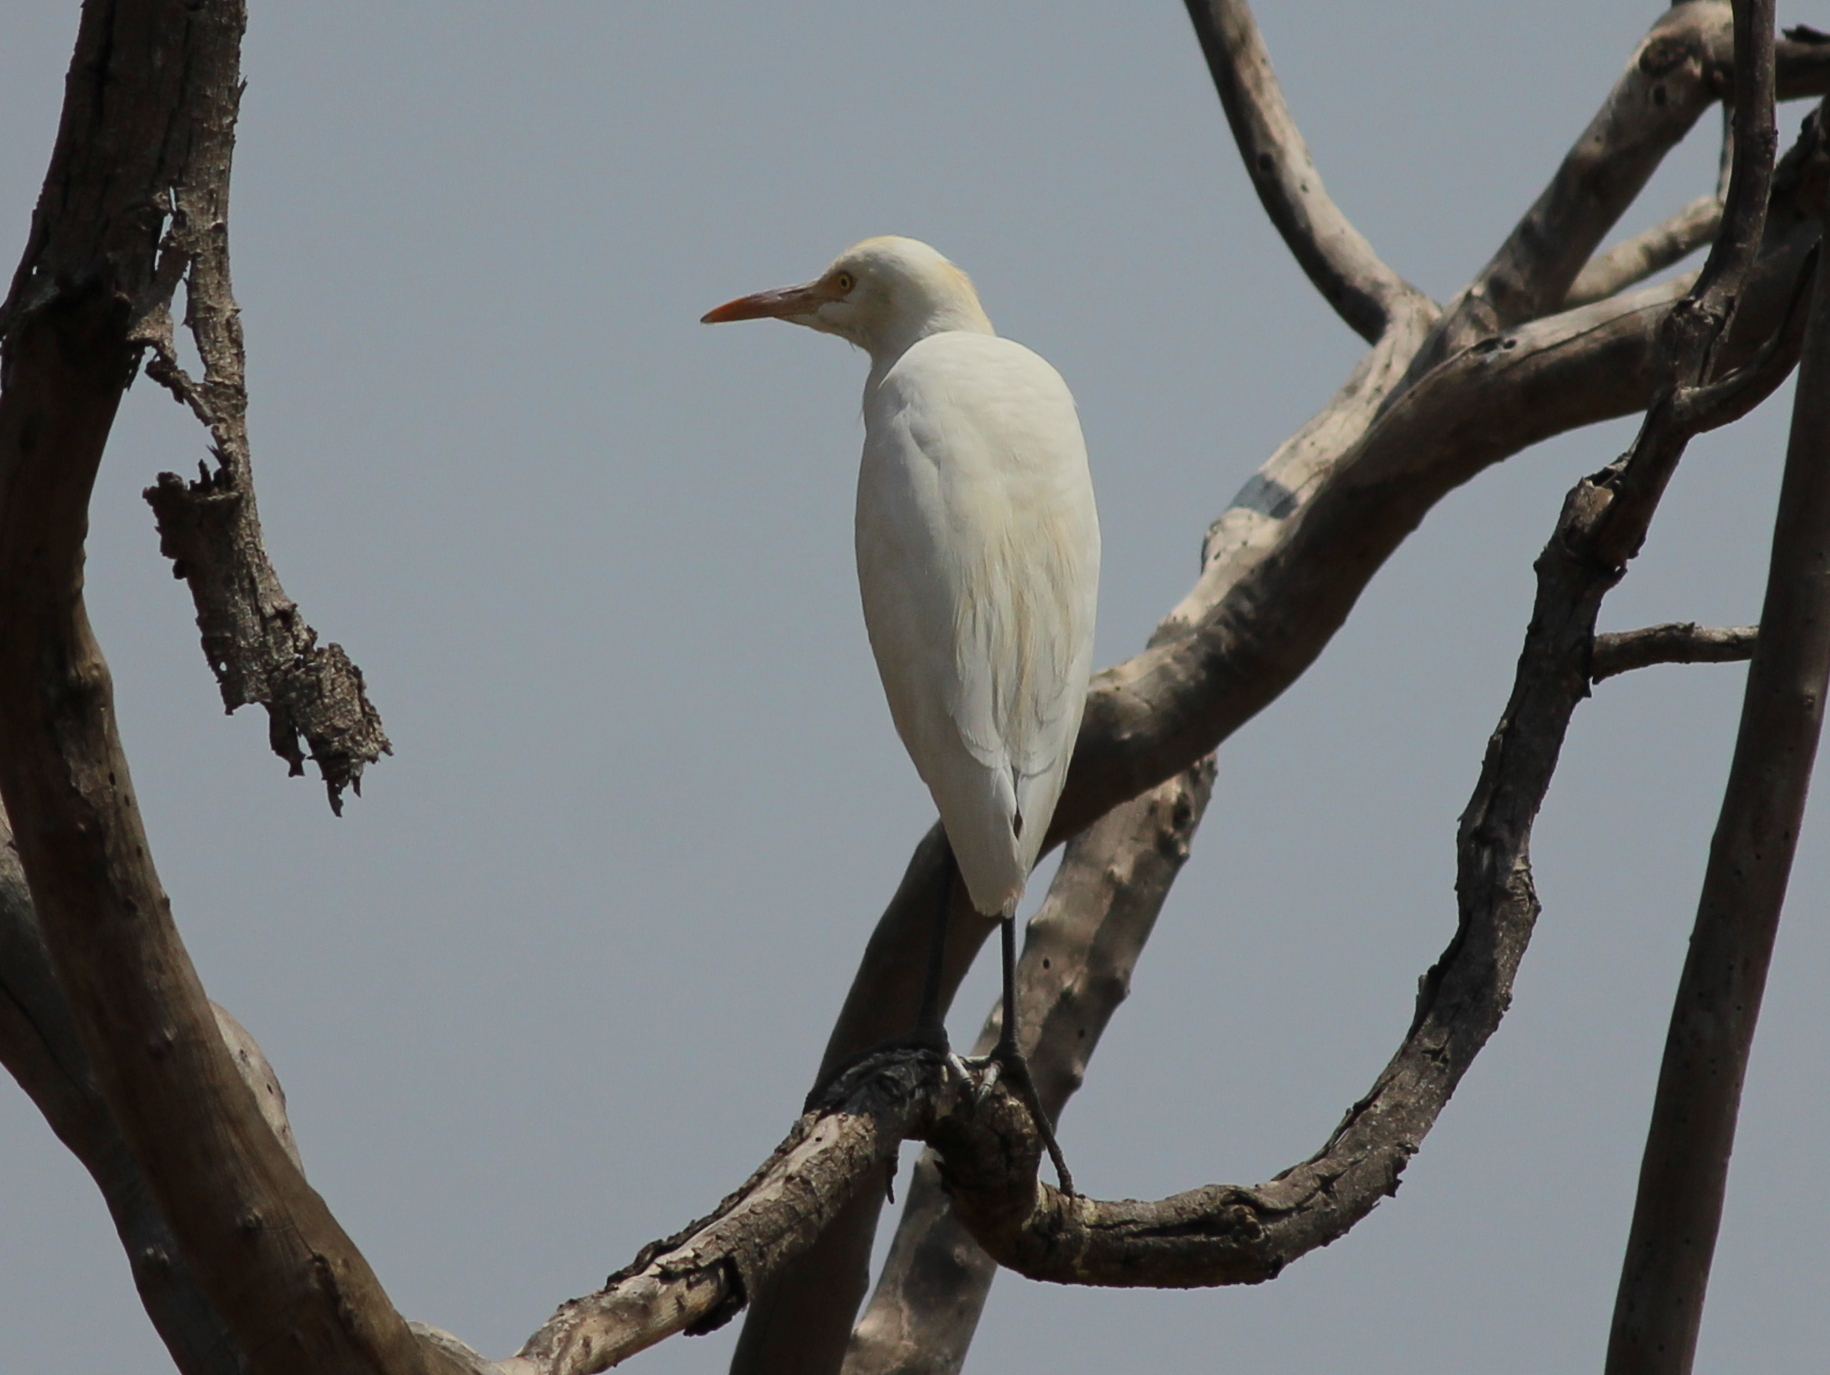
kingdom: Animalia
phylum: Chordata
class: Aves
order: Pelecaniformes
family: Ardeidae
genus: Bubulcus
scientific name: Bubulcus coromandus
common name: Eastern cattle egret
